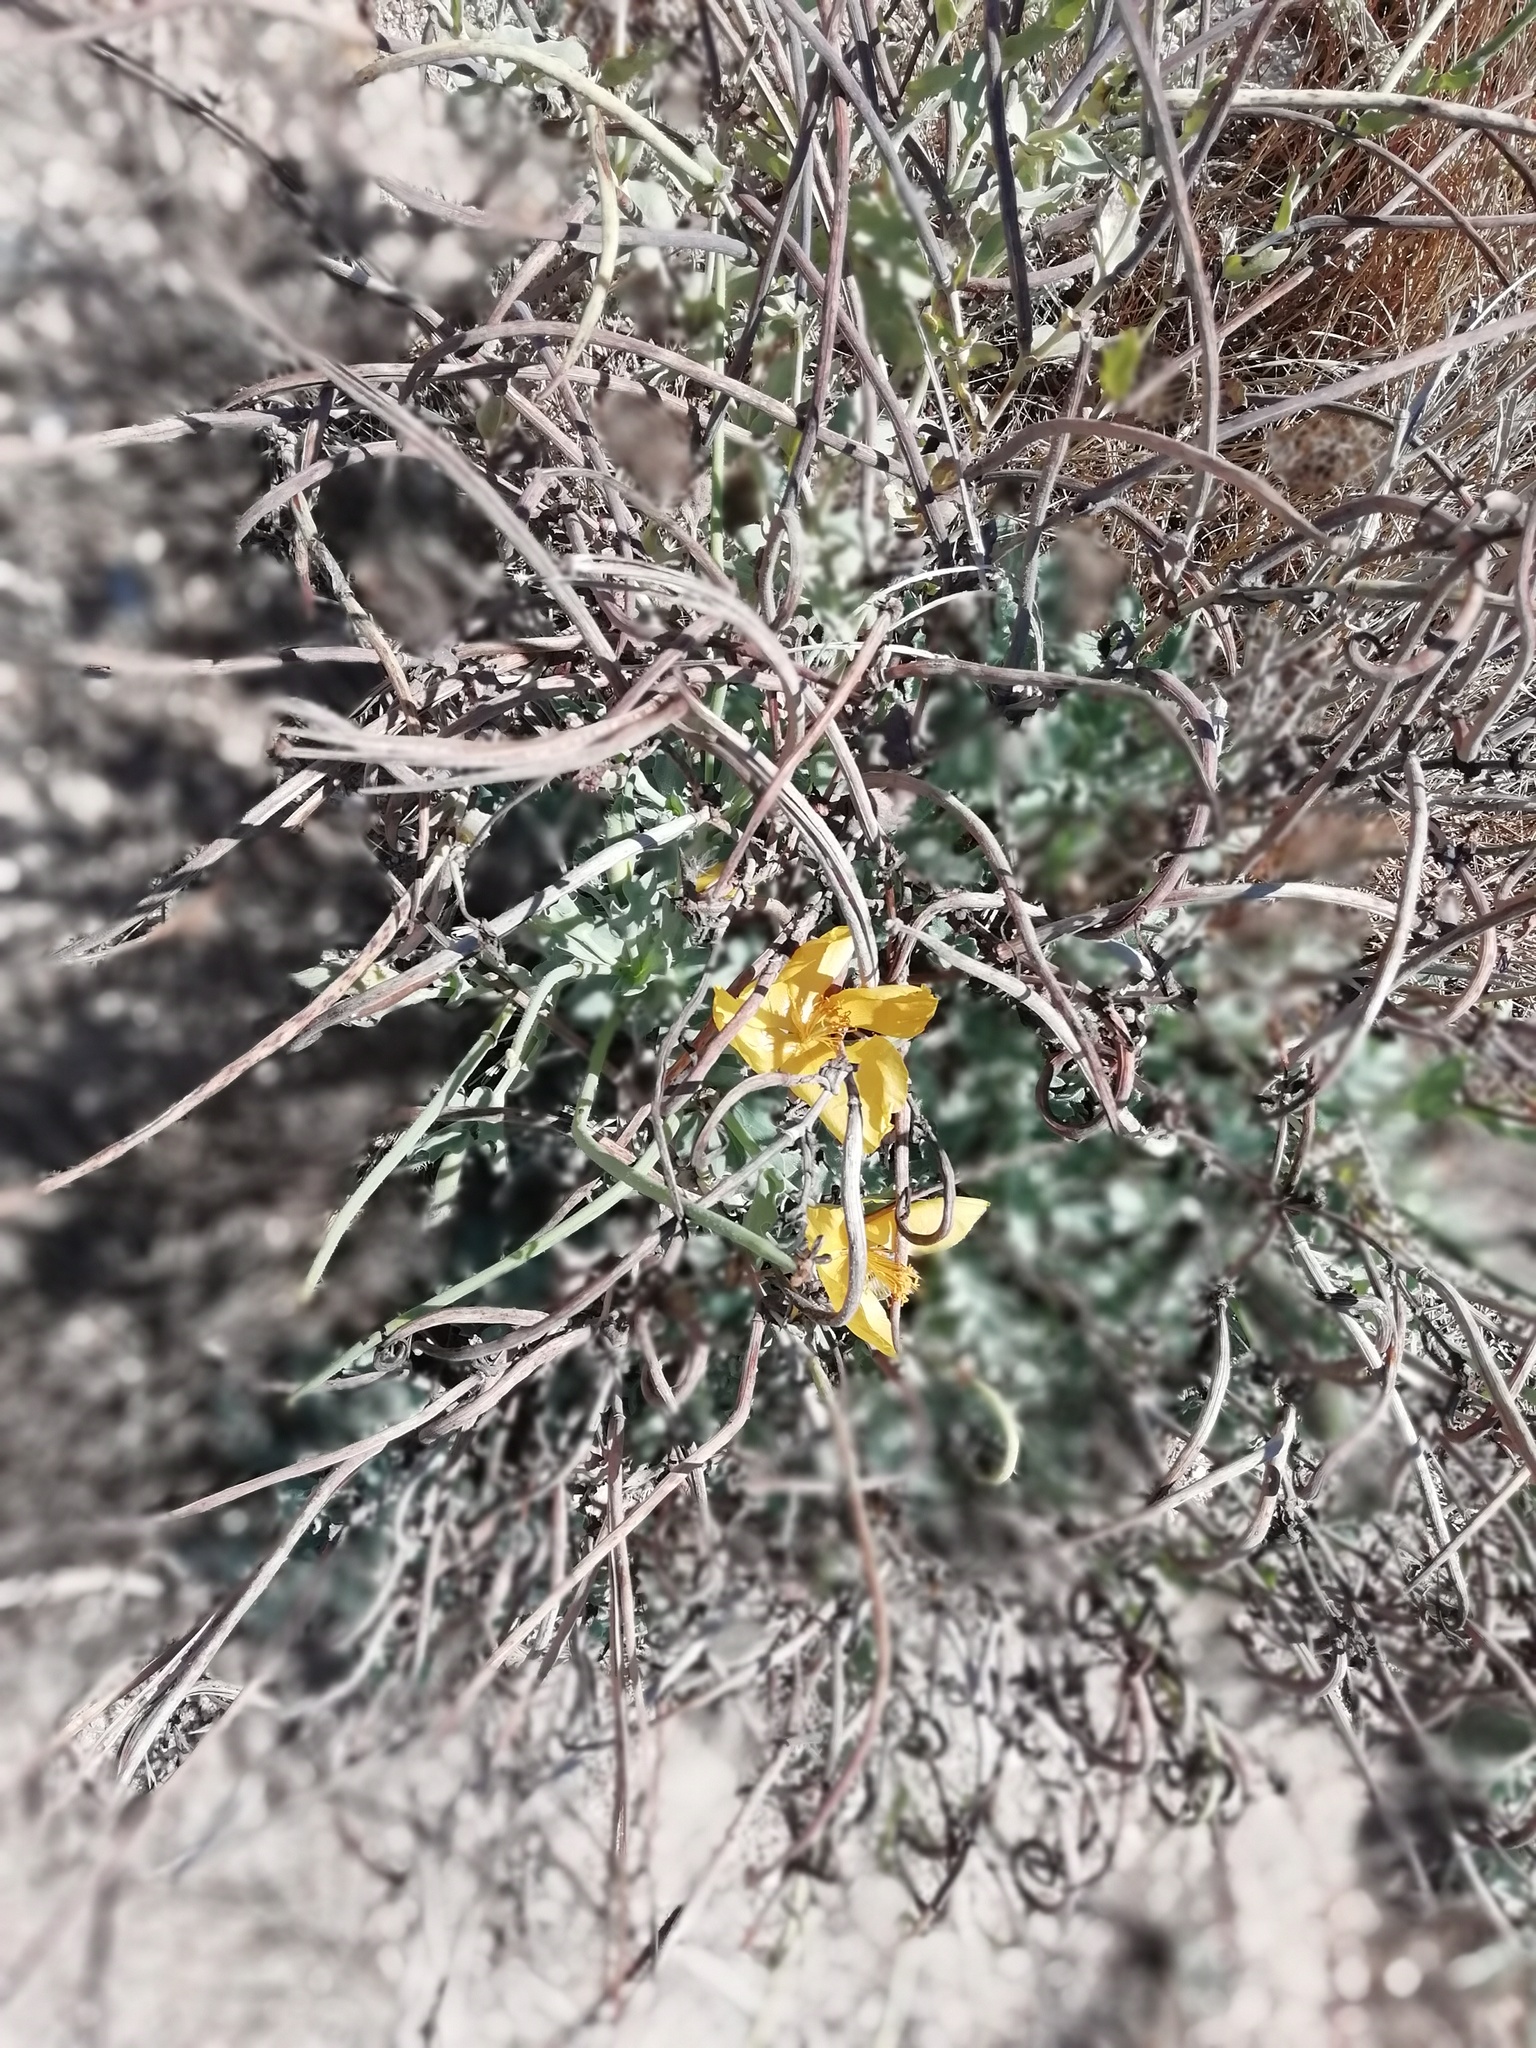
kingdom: Plantae
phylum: Tracheophyta
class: Magnoliopsida
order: Ranunculales
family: Papaveraceae
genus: Glaucium
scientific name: Glaucium flavum
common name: Yellow horned-poppy
